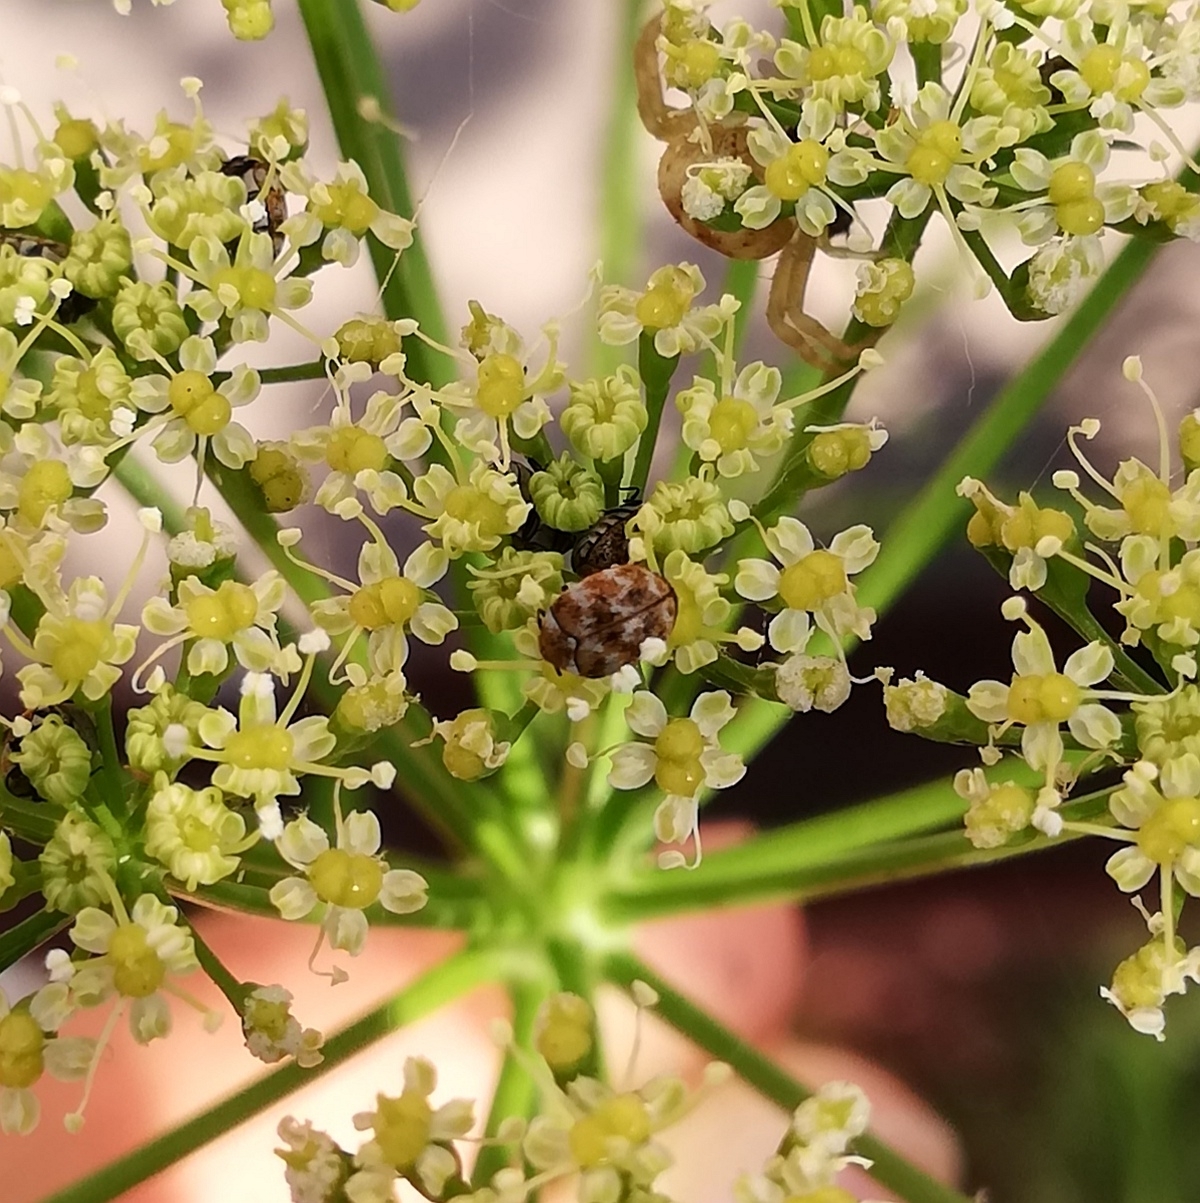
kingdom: Animalia
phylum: Arthropoda
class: Insecta
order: Coleoptera
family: Dermestidae
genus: Anthrenus
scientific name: Anthrenus verbasci
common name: Varied carpet beetle
